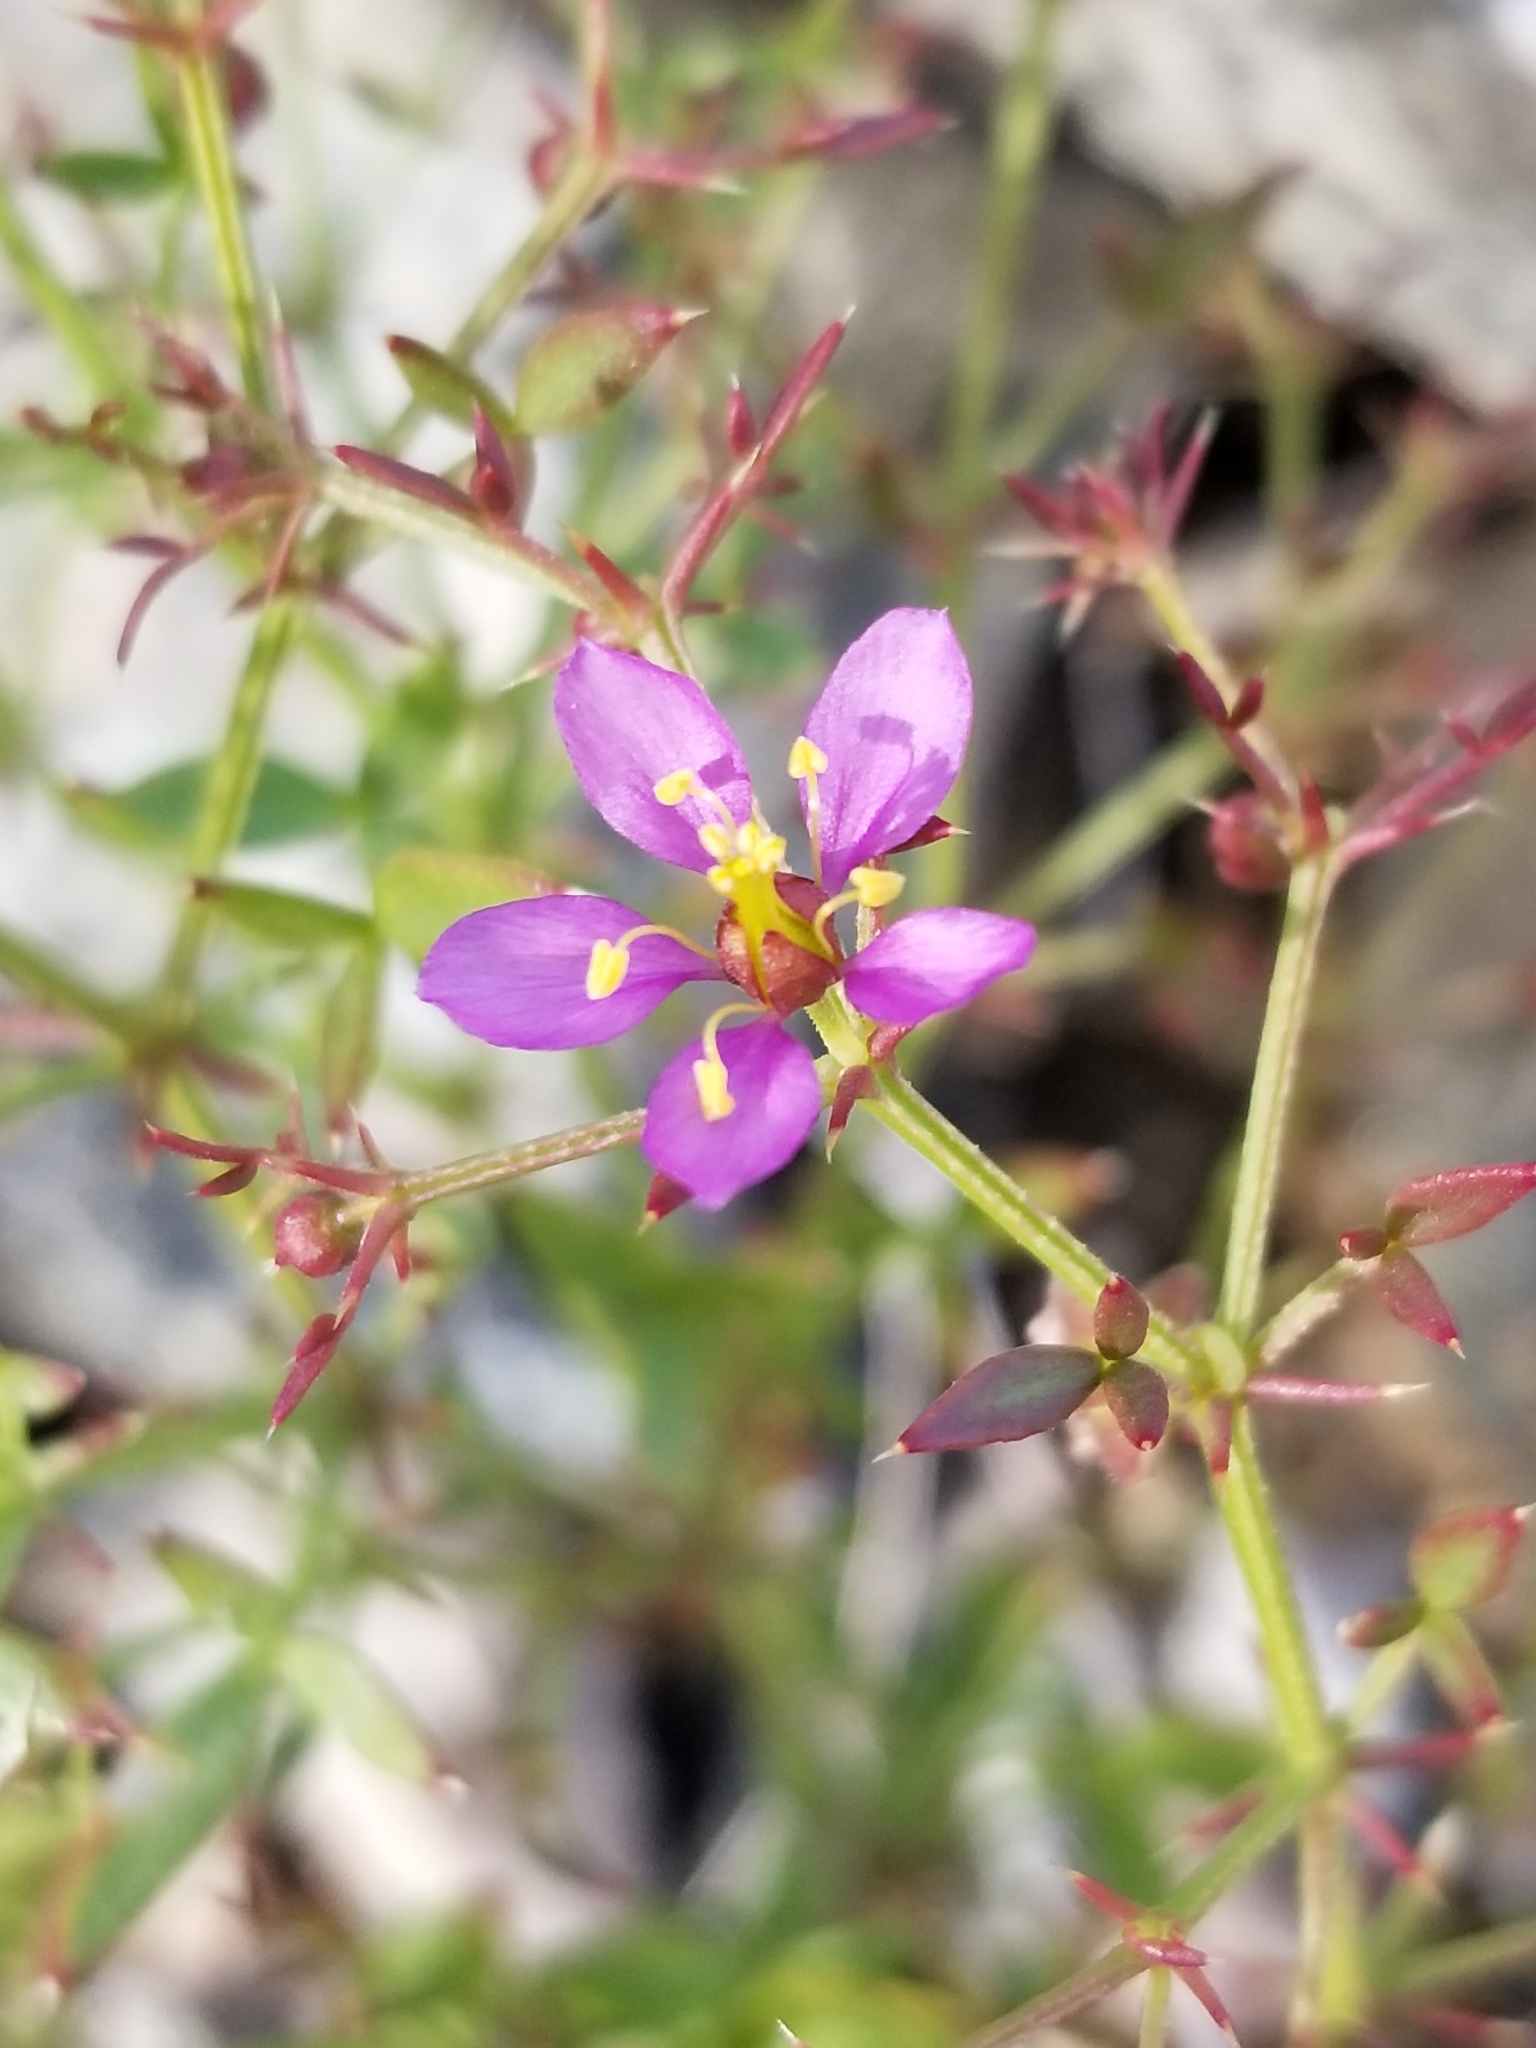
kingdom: Plantae
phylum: Tracheophyta
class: Magnoliopsida
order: Zygophyllales
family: Zygophyllaceae
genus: Fagonia
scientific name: Fagonia laevis
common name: California fagonbush
